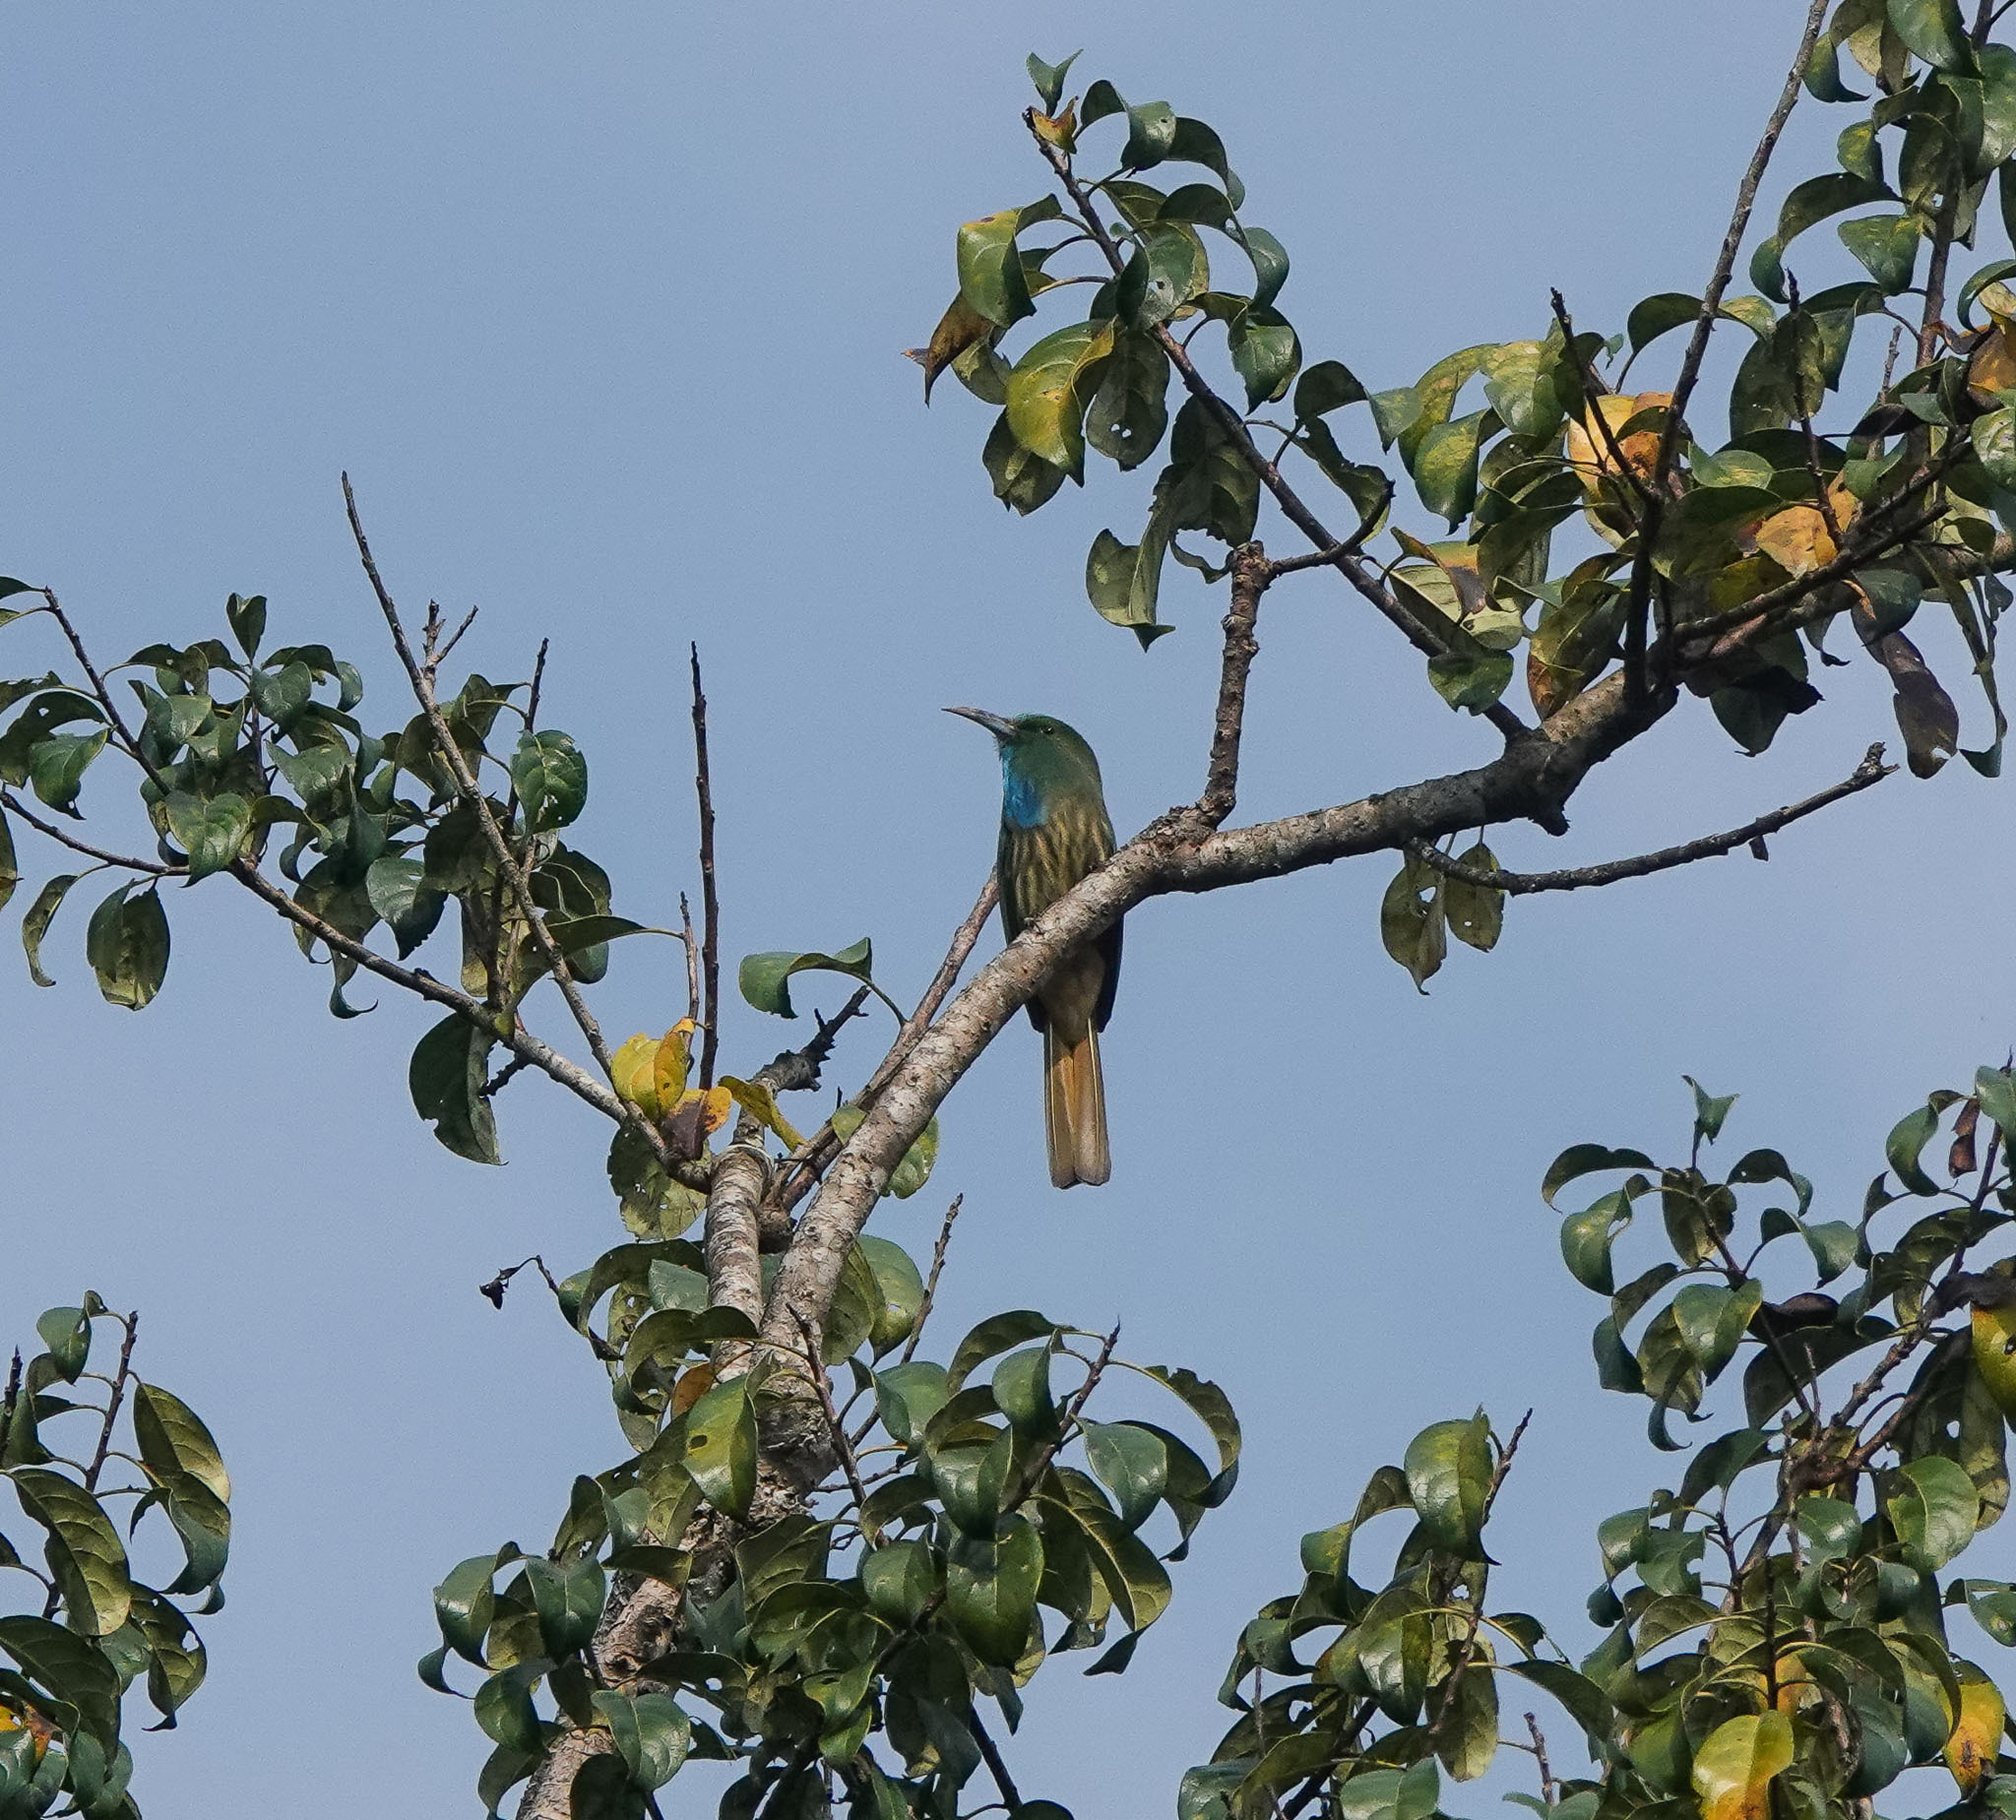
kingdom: Animalia
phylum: Chordata
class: Aves
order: Coraciiformes
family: Meropidae
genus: Nyctyornis
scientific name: Nyctyornis athertoni
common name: Blue-bearded bee-eater
